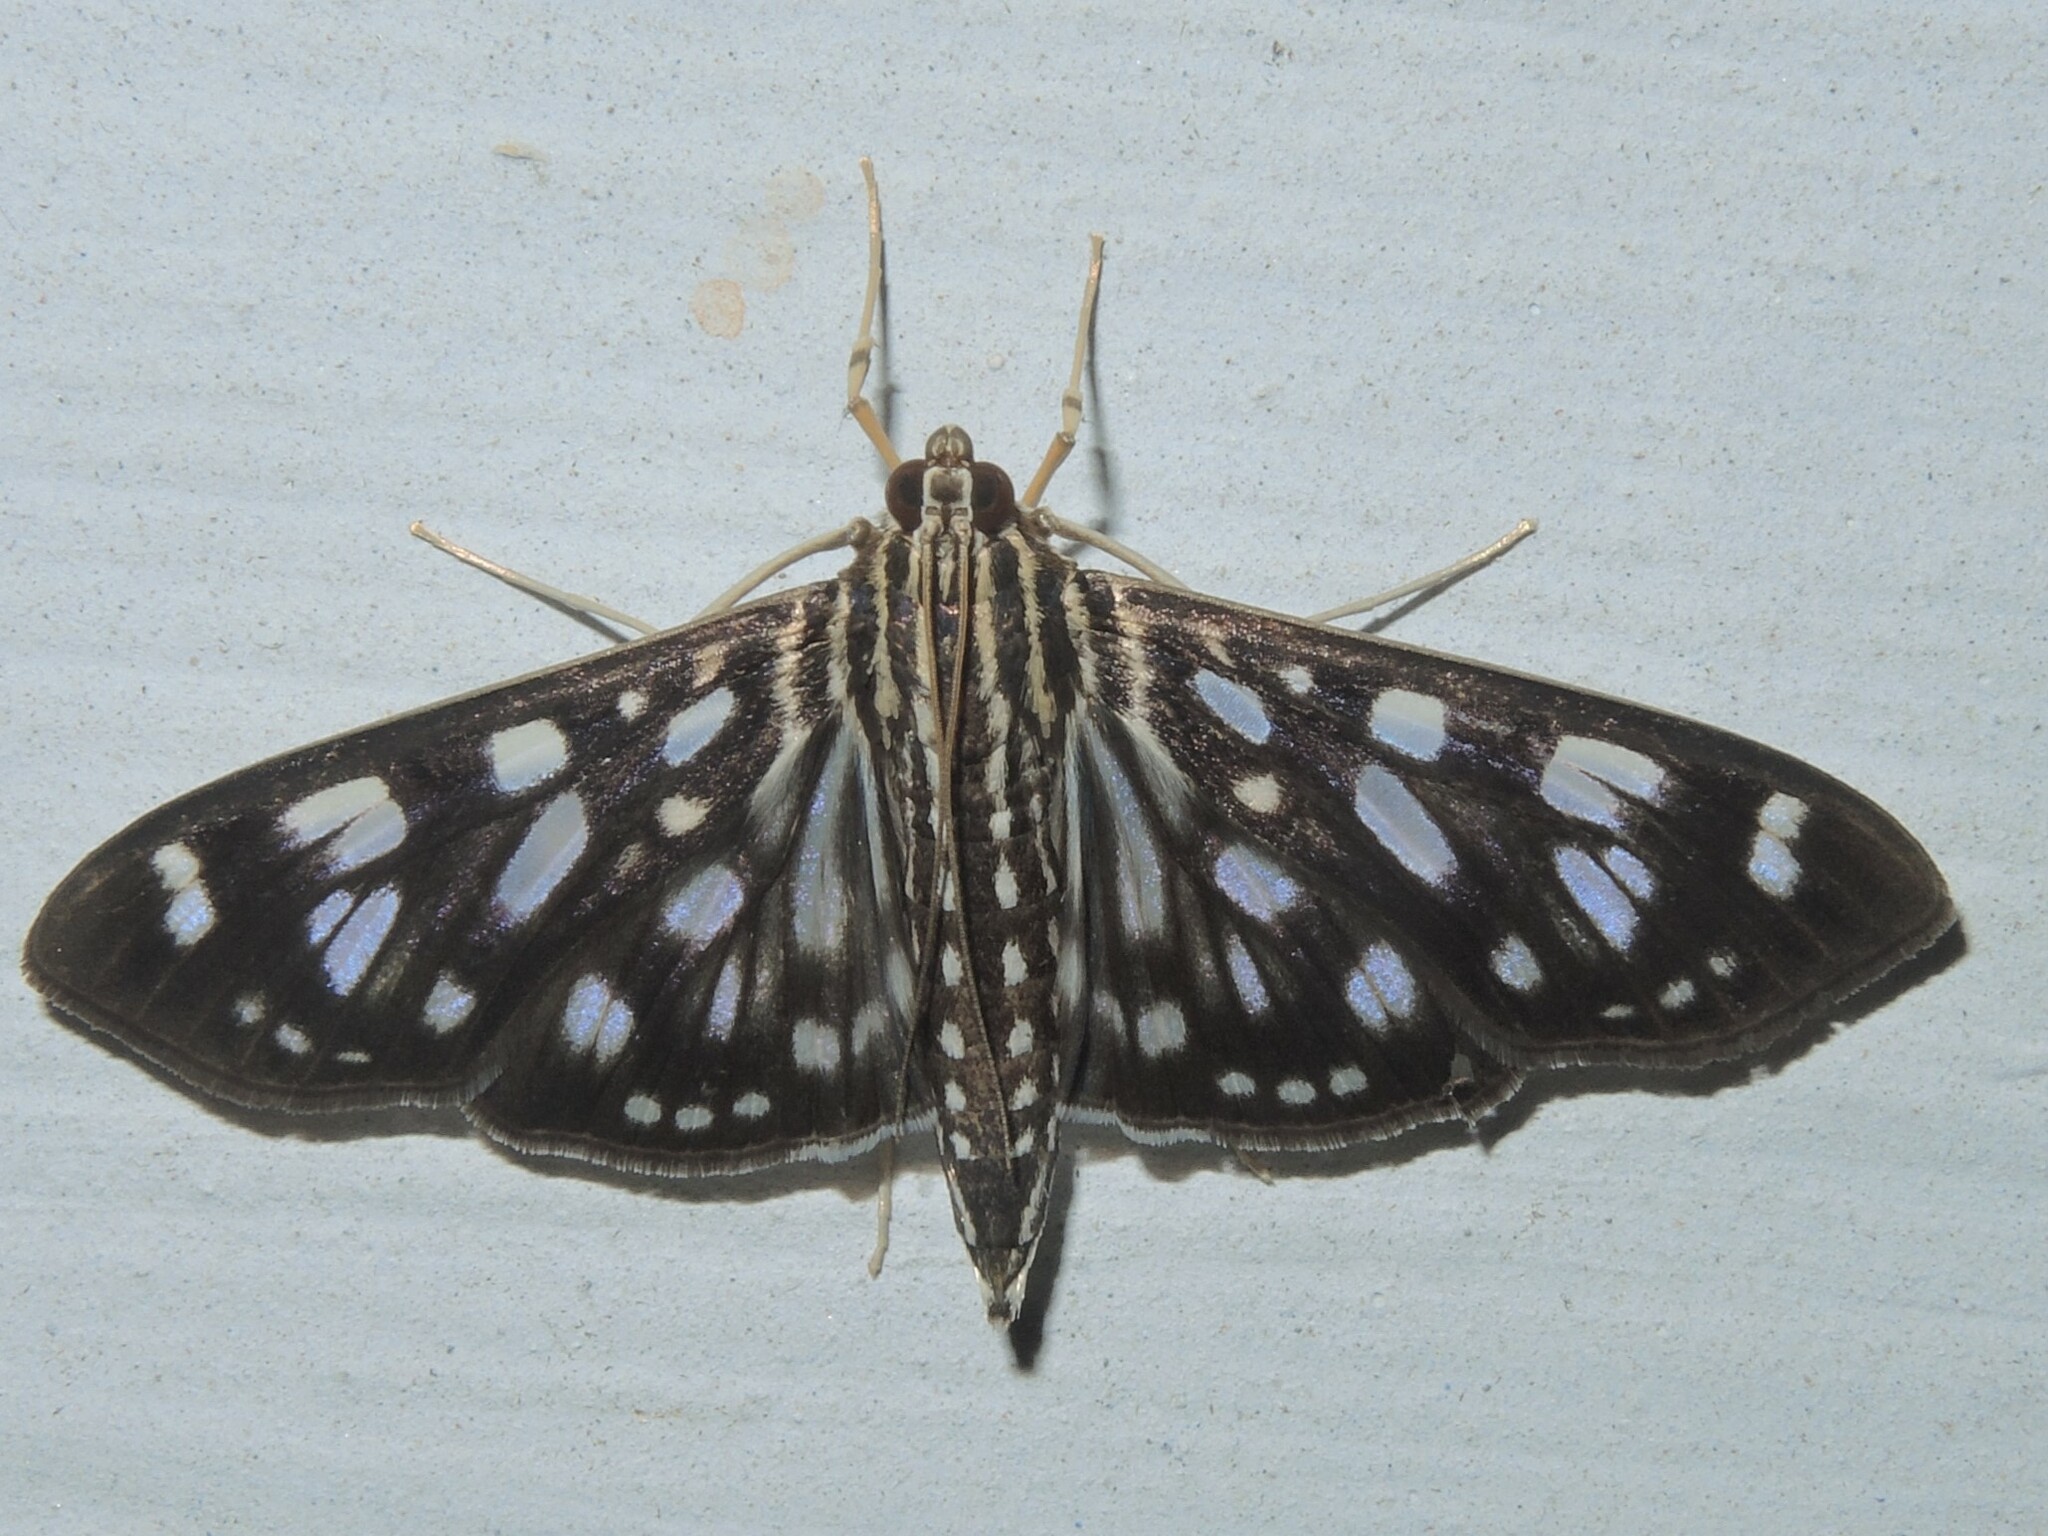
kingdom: Animalia
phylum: Arthropoda
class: Insecta
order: Lepidoptera
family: Crambidae
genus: Pygospila
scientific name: Pygospila tyres
